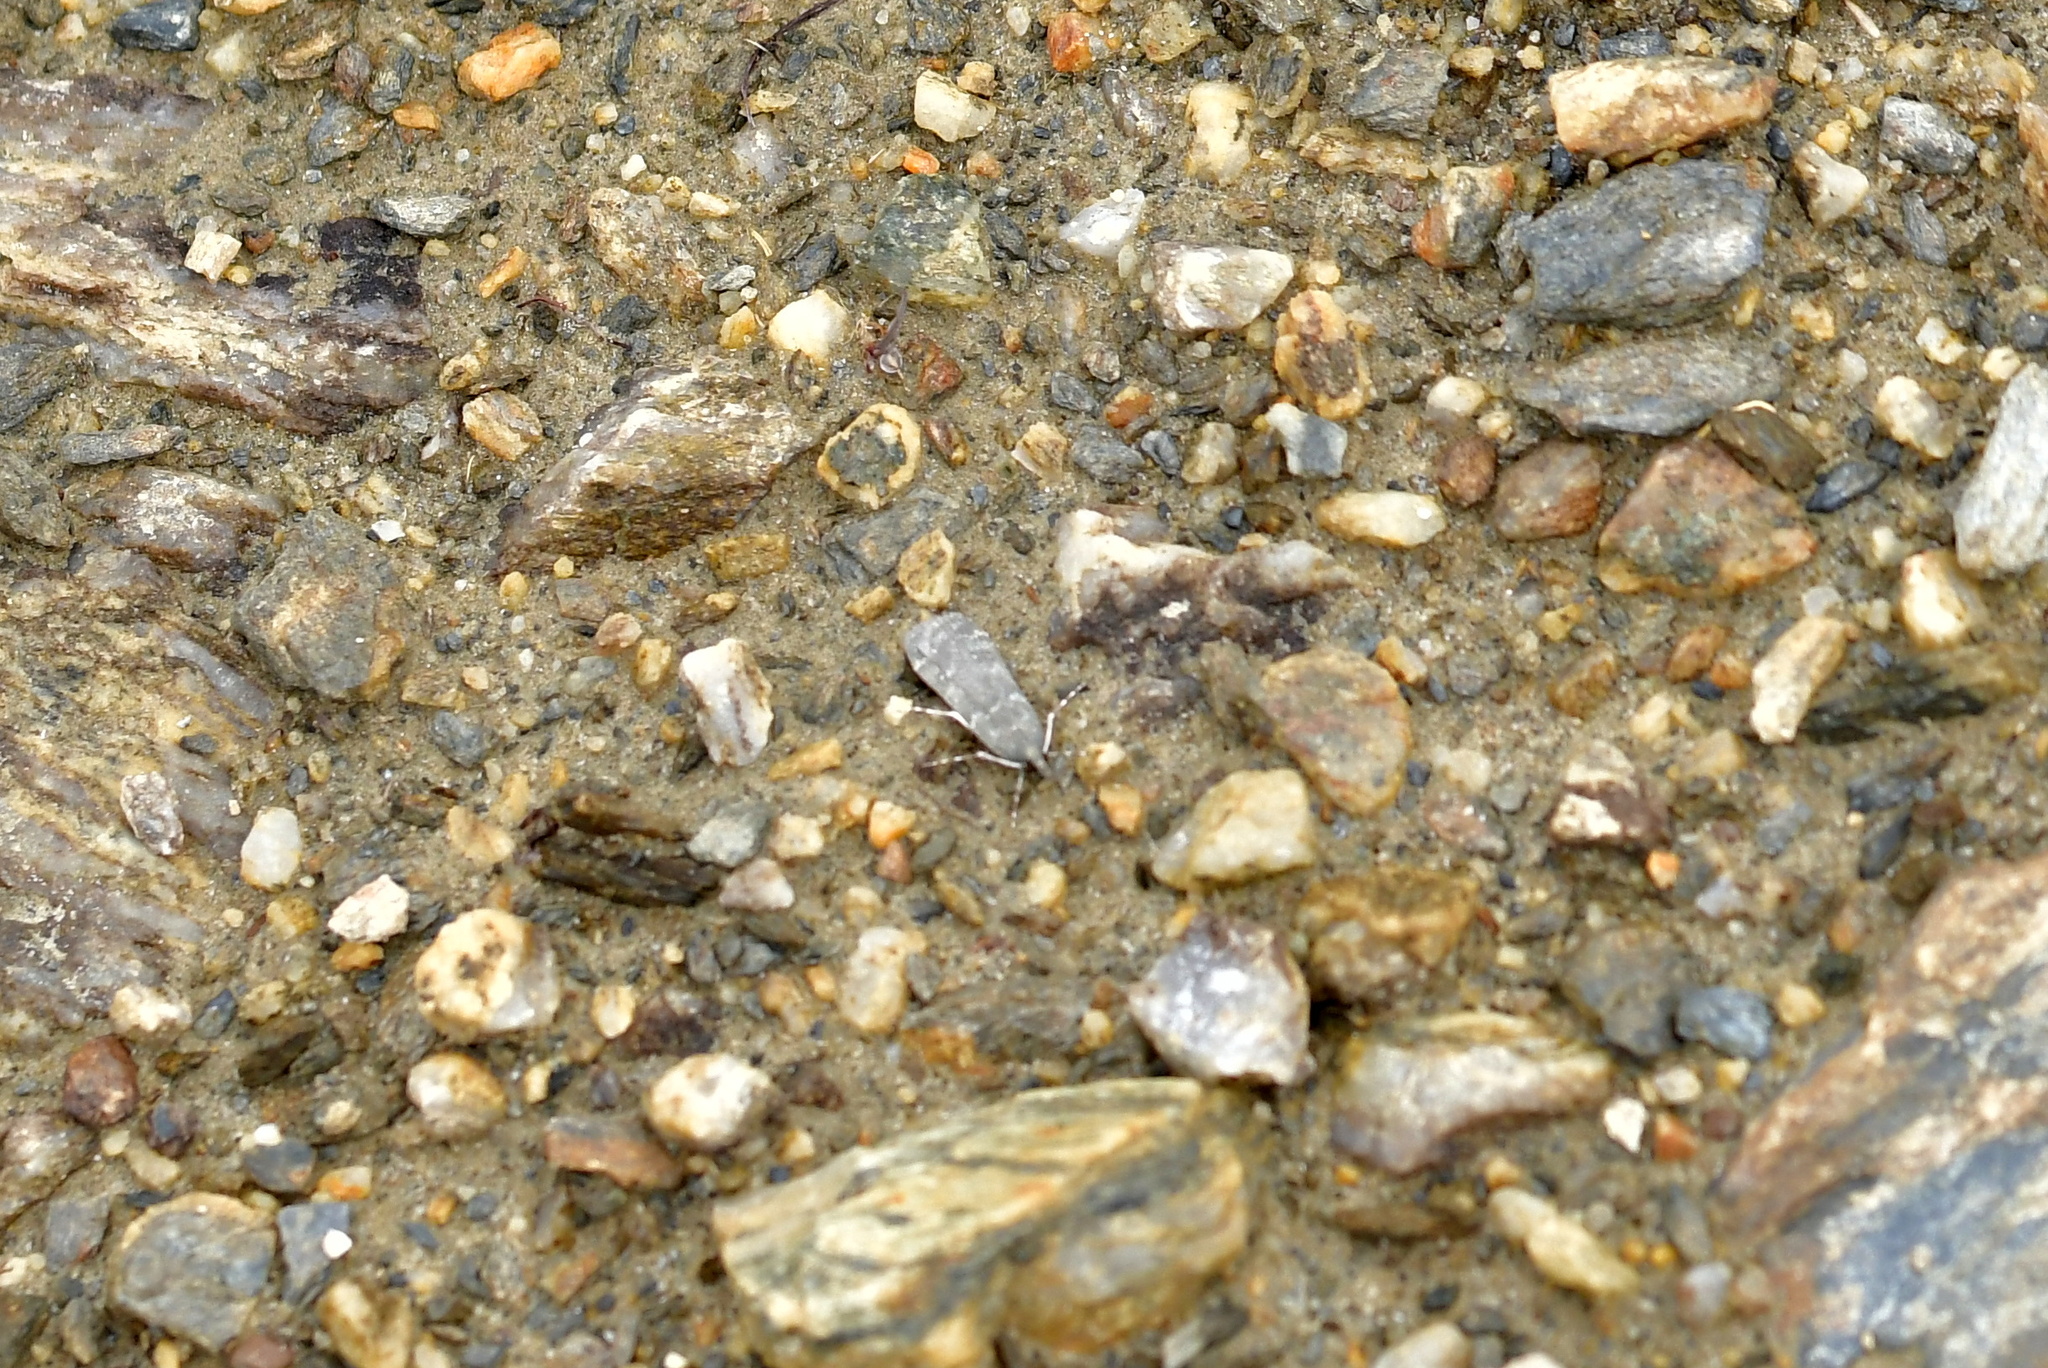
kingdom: Animalia
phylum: Arthropoda
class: Insecta
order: Lepidoptera
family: Crambidae
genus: Eudonia
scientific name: Eudonia cataxesta
